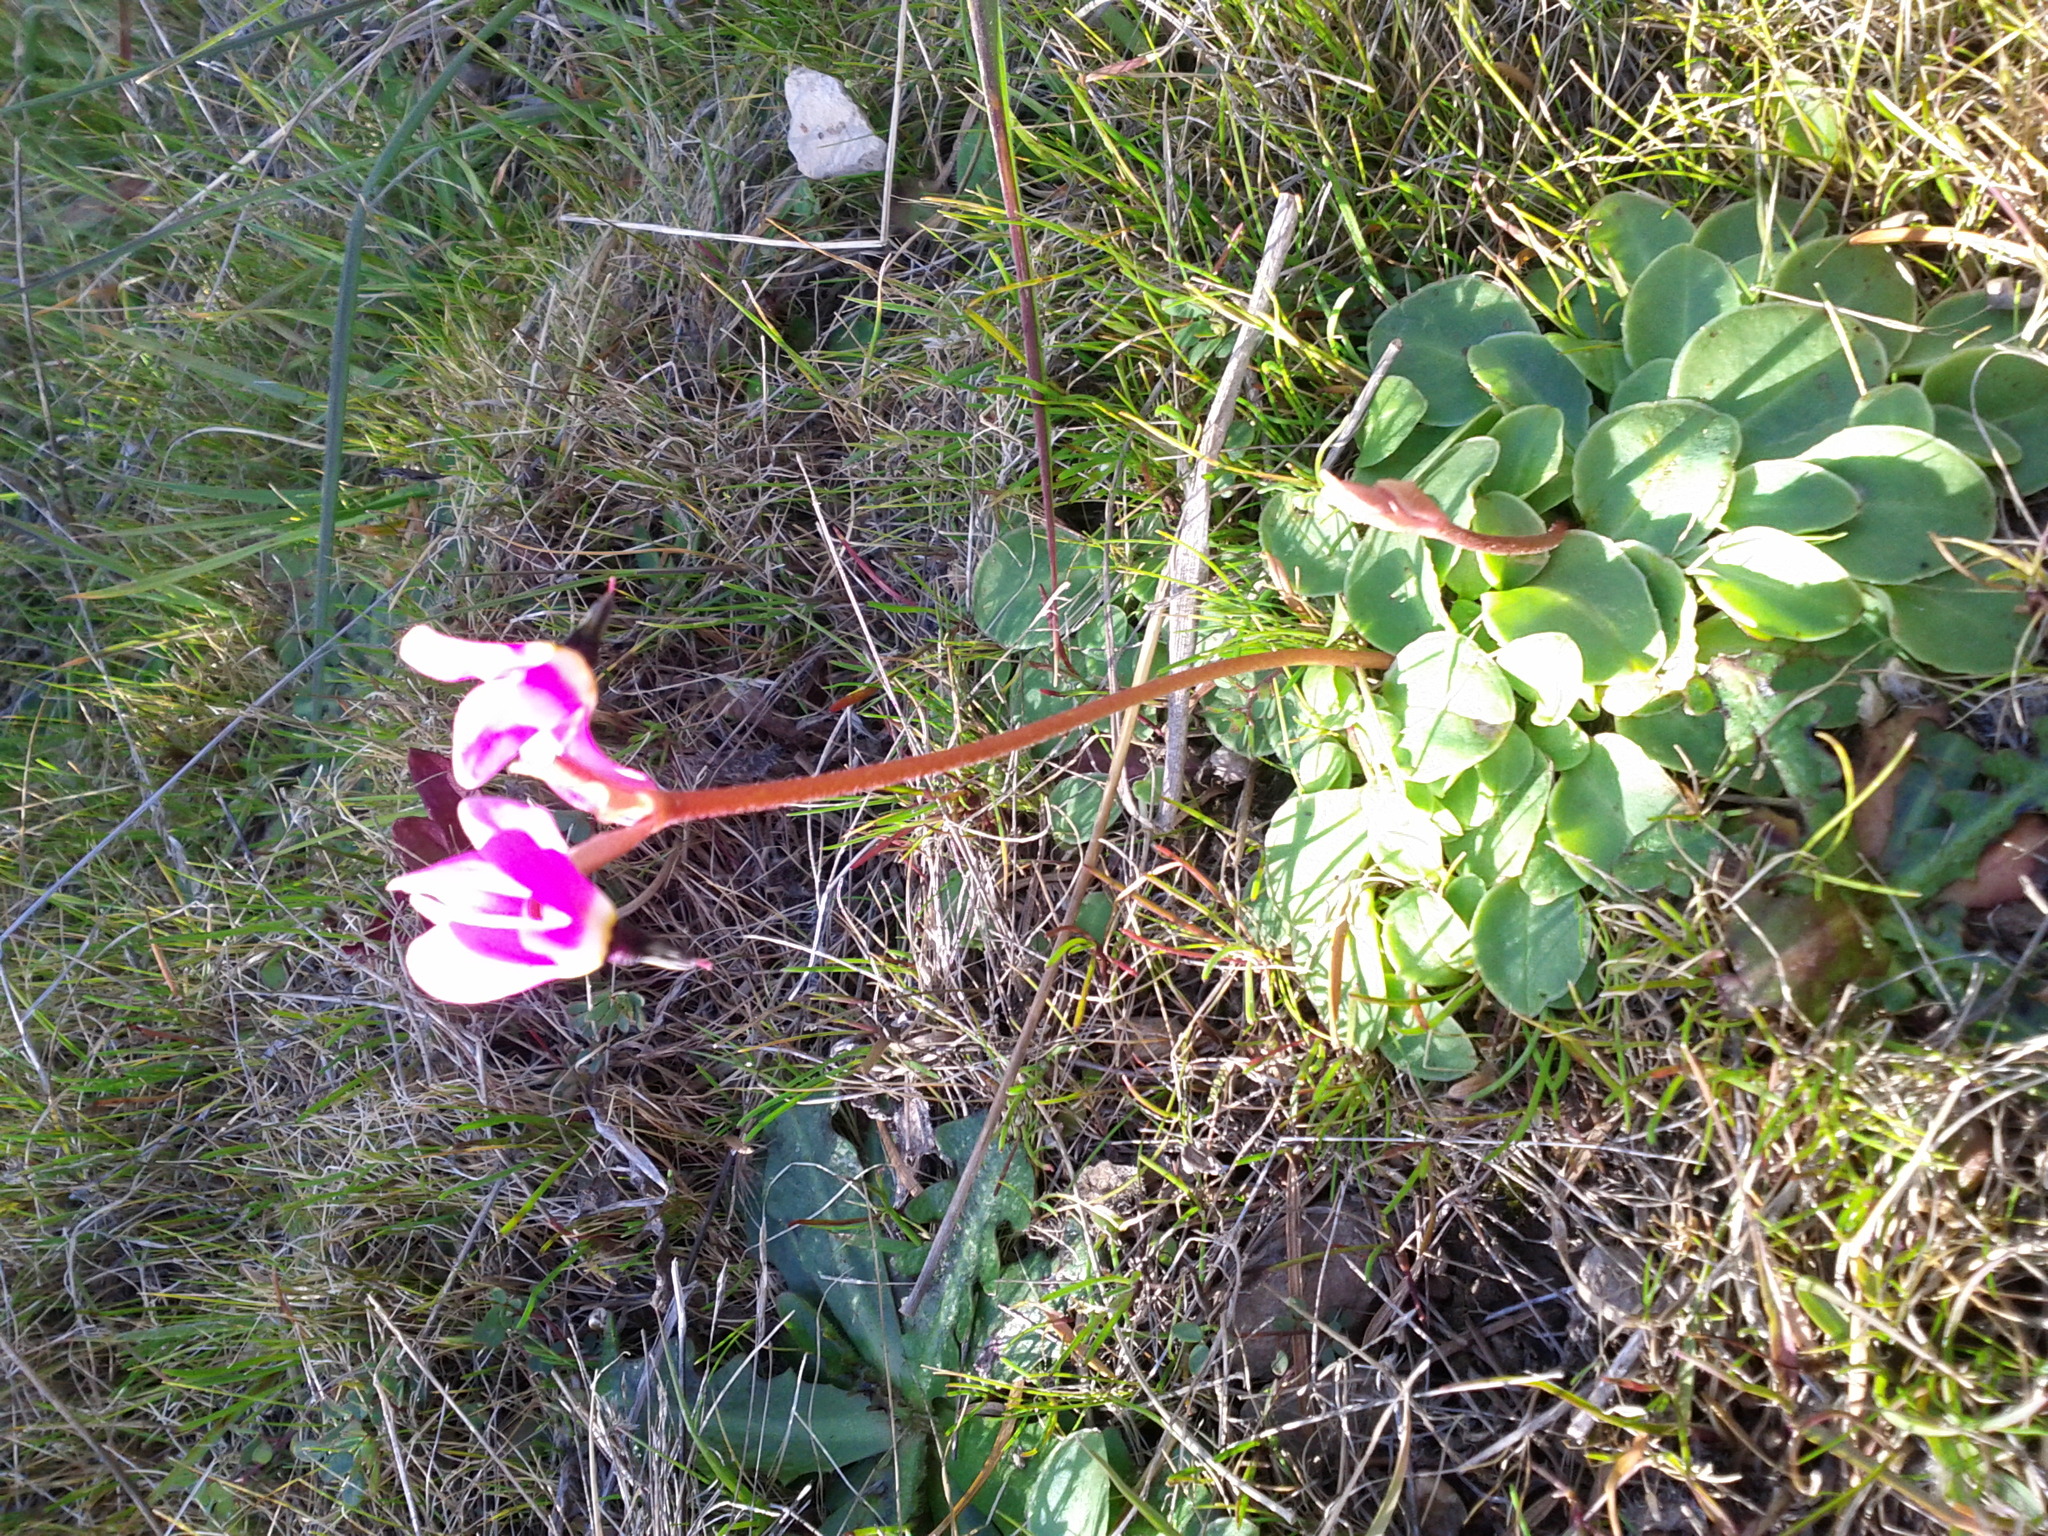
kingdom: Plantae
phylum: Tracheophyta
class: Magnoliopsida
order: Ericales
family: Primulaceae
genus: Dodecatheon
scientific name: Dodecatheon hendersonii
